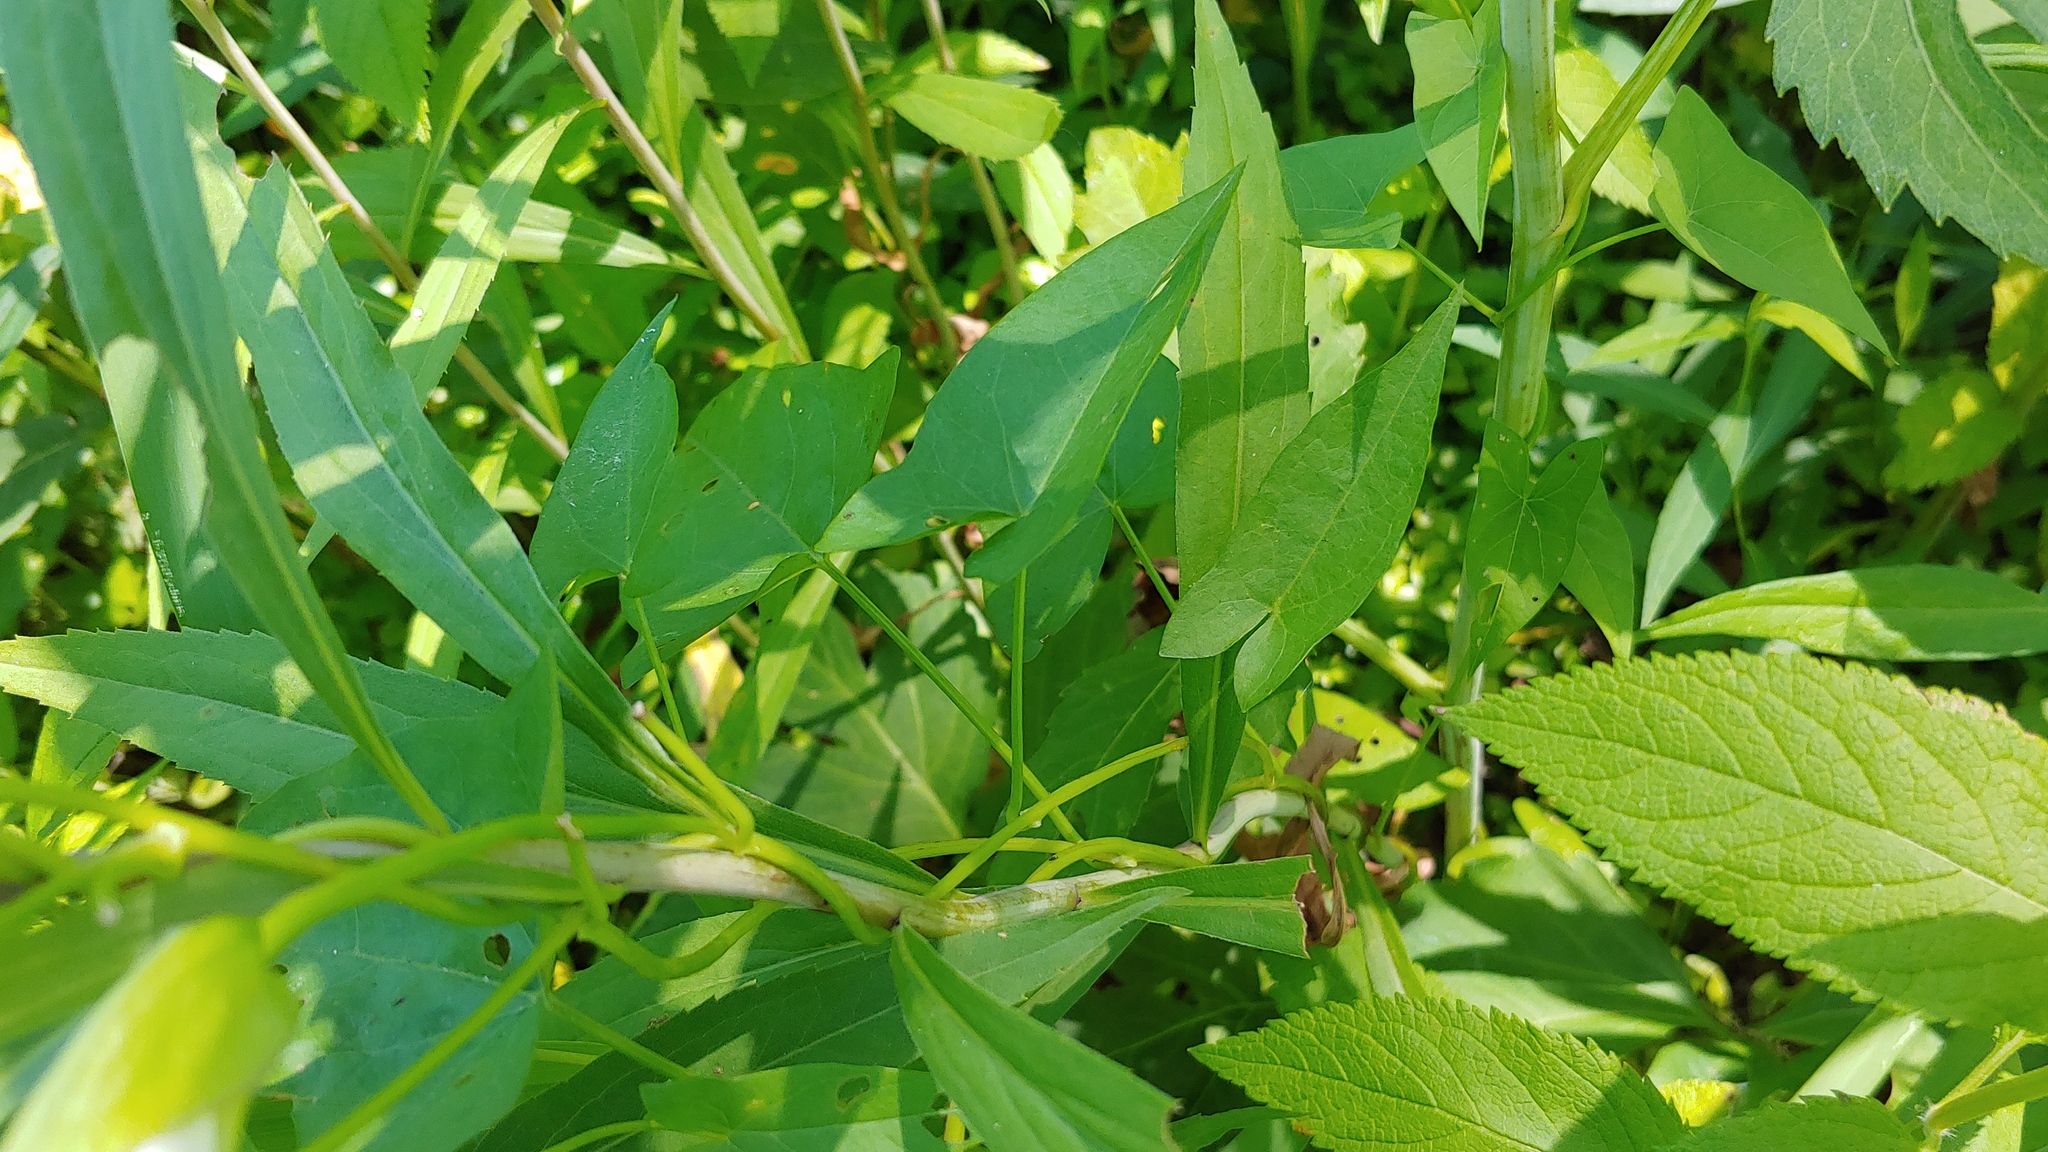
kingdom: Plantae
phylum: Tracheophyta
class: Magnoliopsida
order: Solanales
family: Convolvulaceae
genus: Calystegia
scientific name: Calystegia sepium
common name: Hedge bindweed
